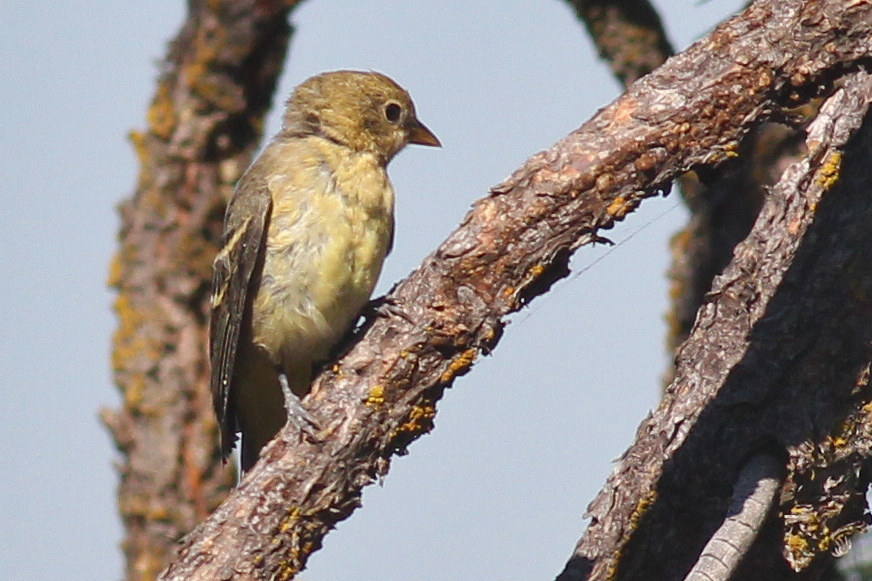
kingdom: Animalia
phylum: Chordata
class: Aves
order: Passeriformes
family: Cardinalidae
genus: Piranga
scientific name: Piranga ludoviciana
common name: Western tanager
